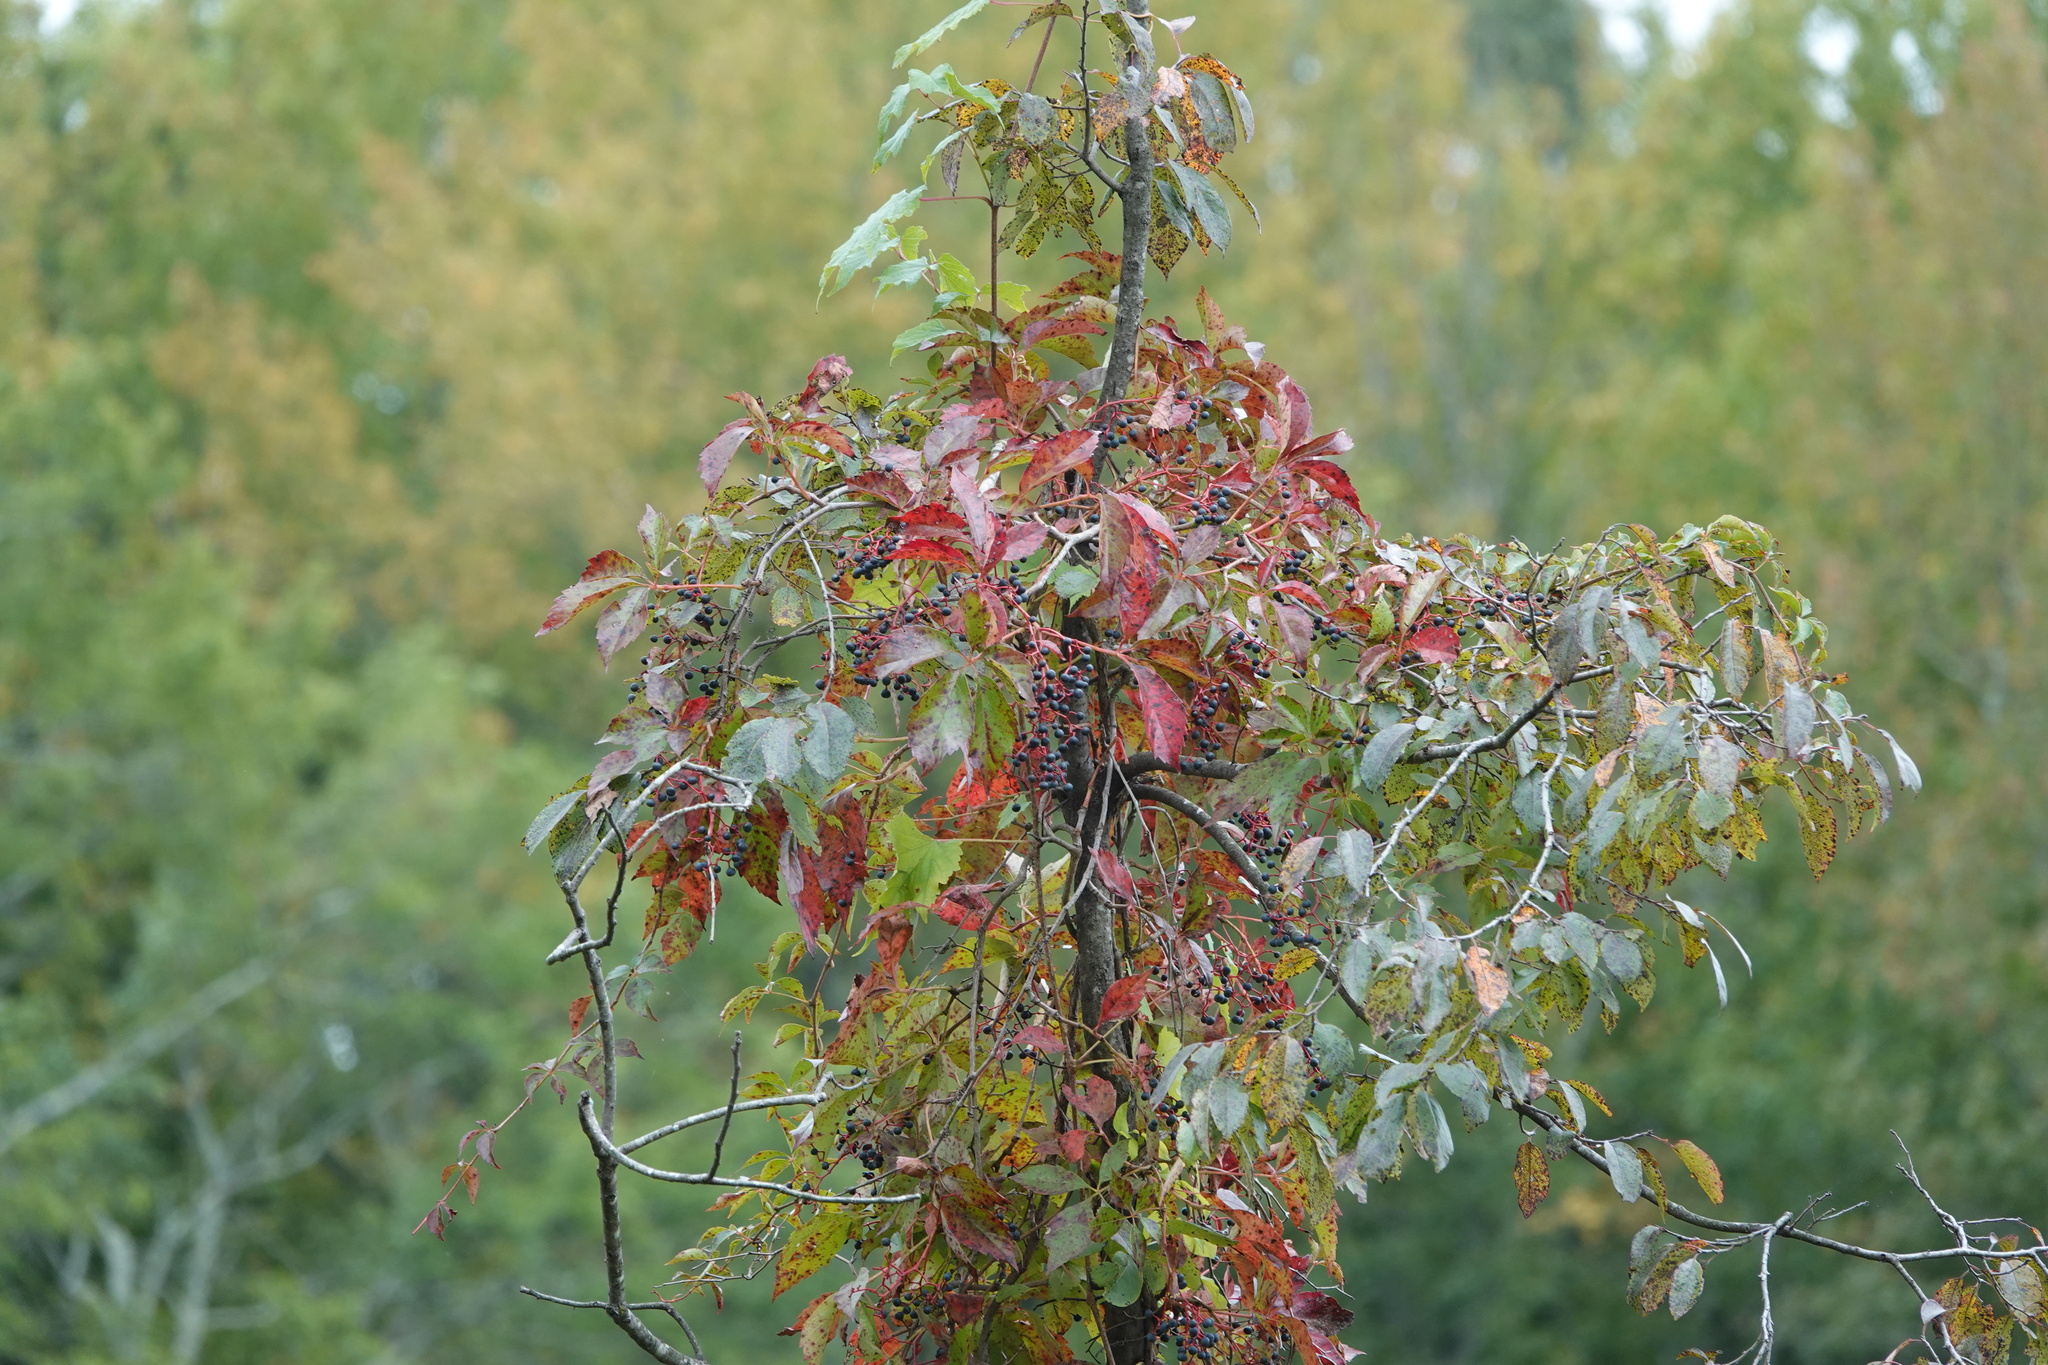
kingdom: Plantae
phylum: Tracheophyta
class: Magnoliopsida
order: Vitales
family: Vitaceae
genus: Parthenocissus
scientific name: Parthenocissus quinquefolia
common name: Virginia-creeper
